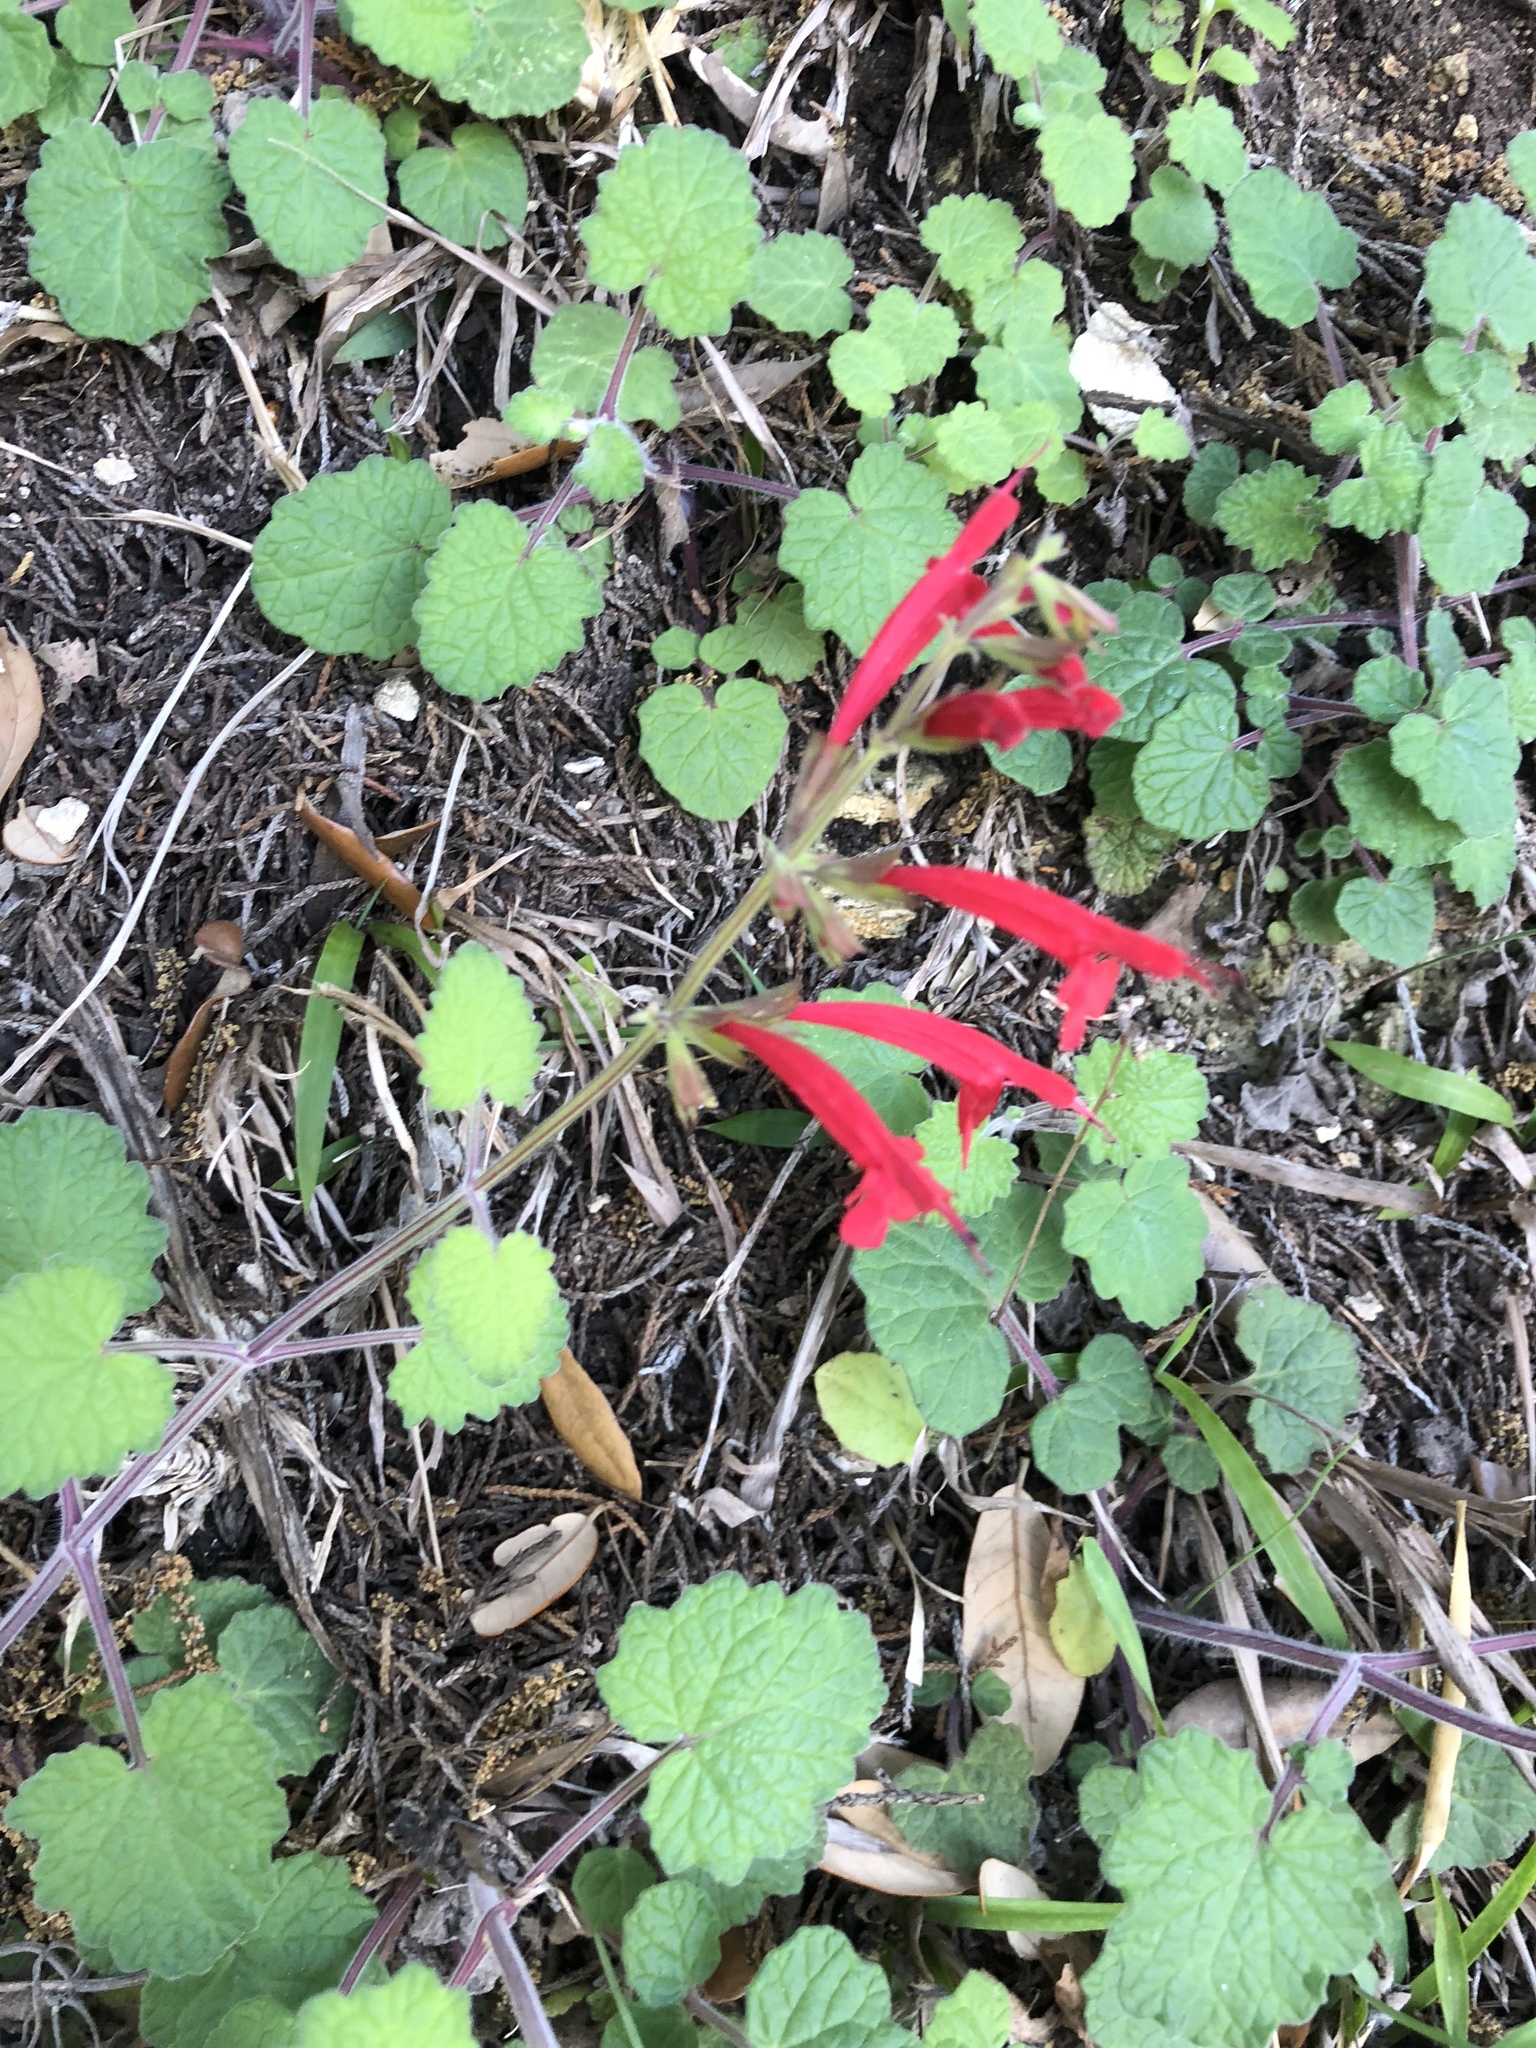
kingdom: Plantae
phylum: Tracheophyta
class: Magnoliopsida
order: Lamiales
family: Lamiaceae
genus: Salvia
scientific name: Salvia roemeriana
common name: Cedar sage
